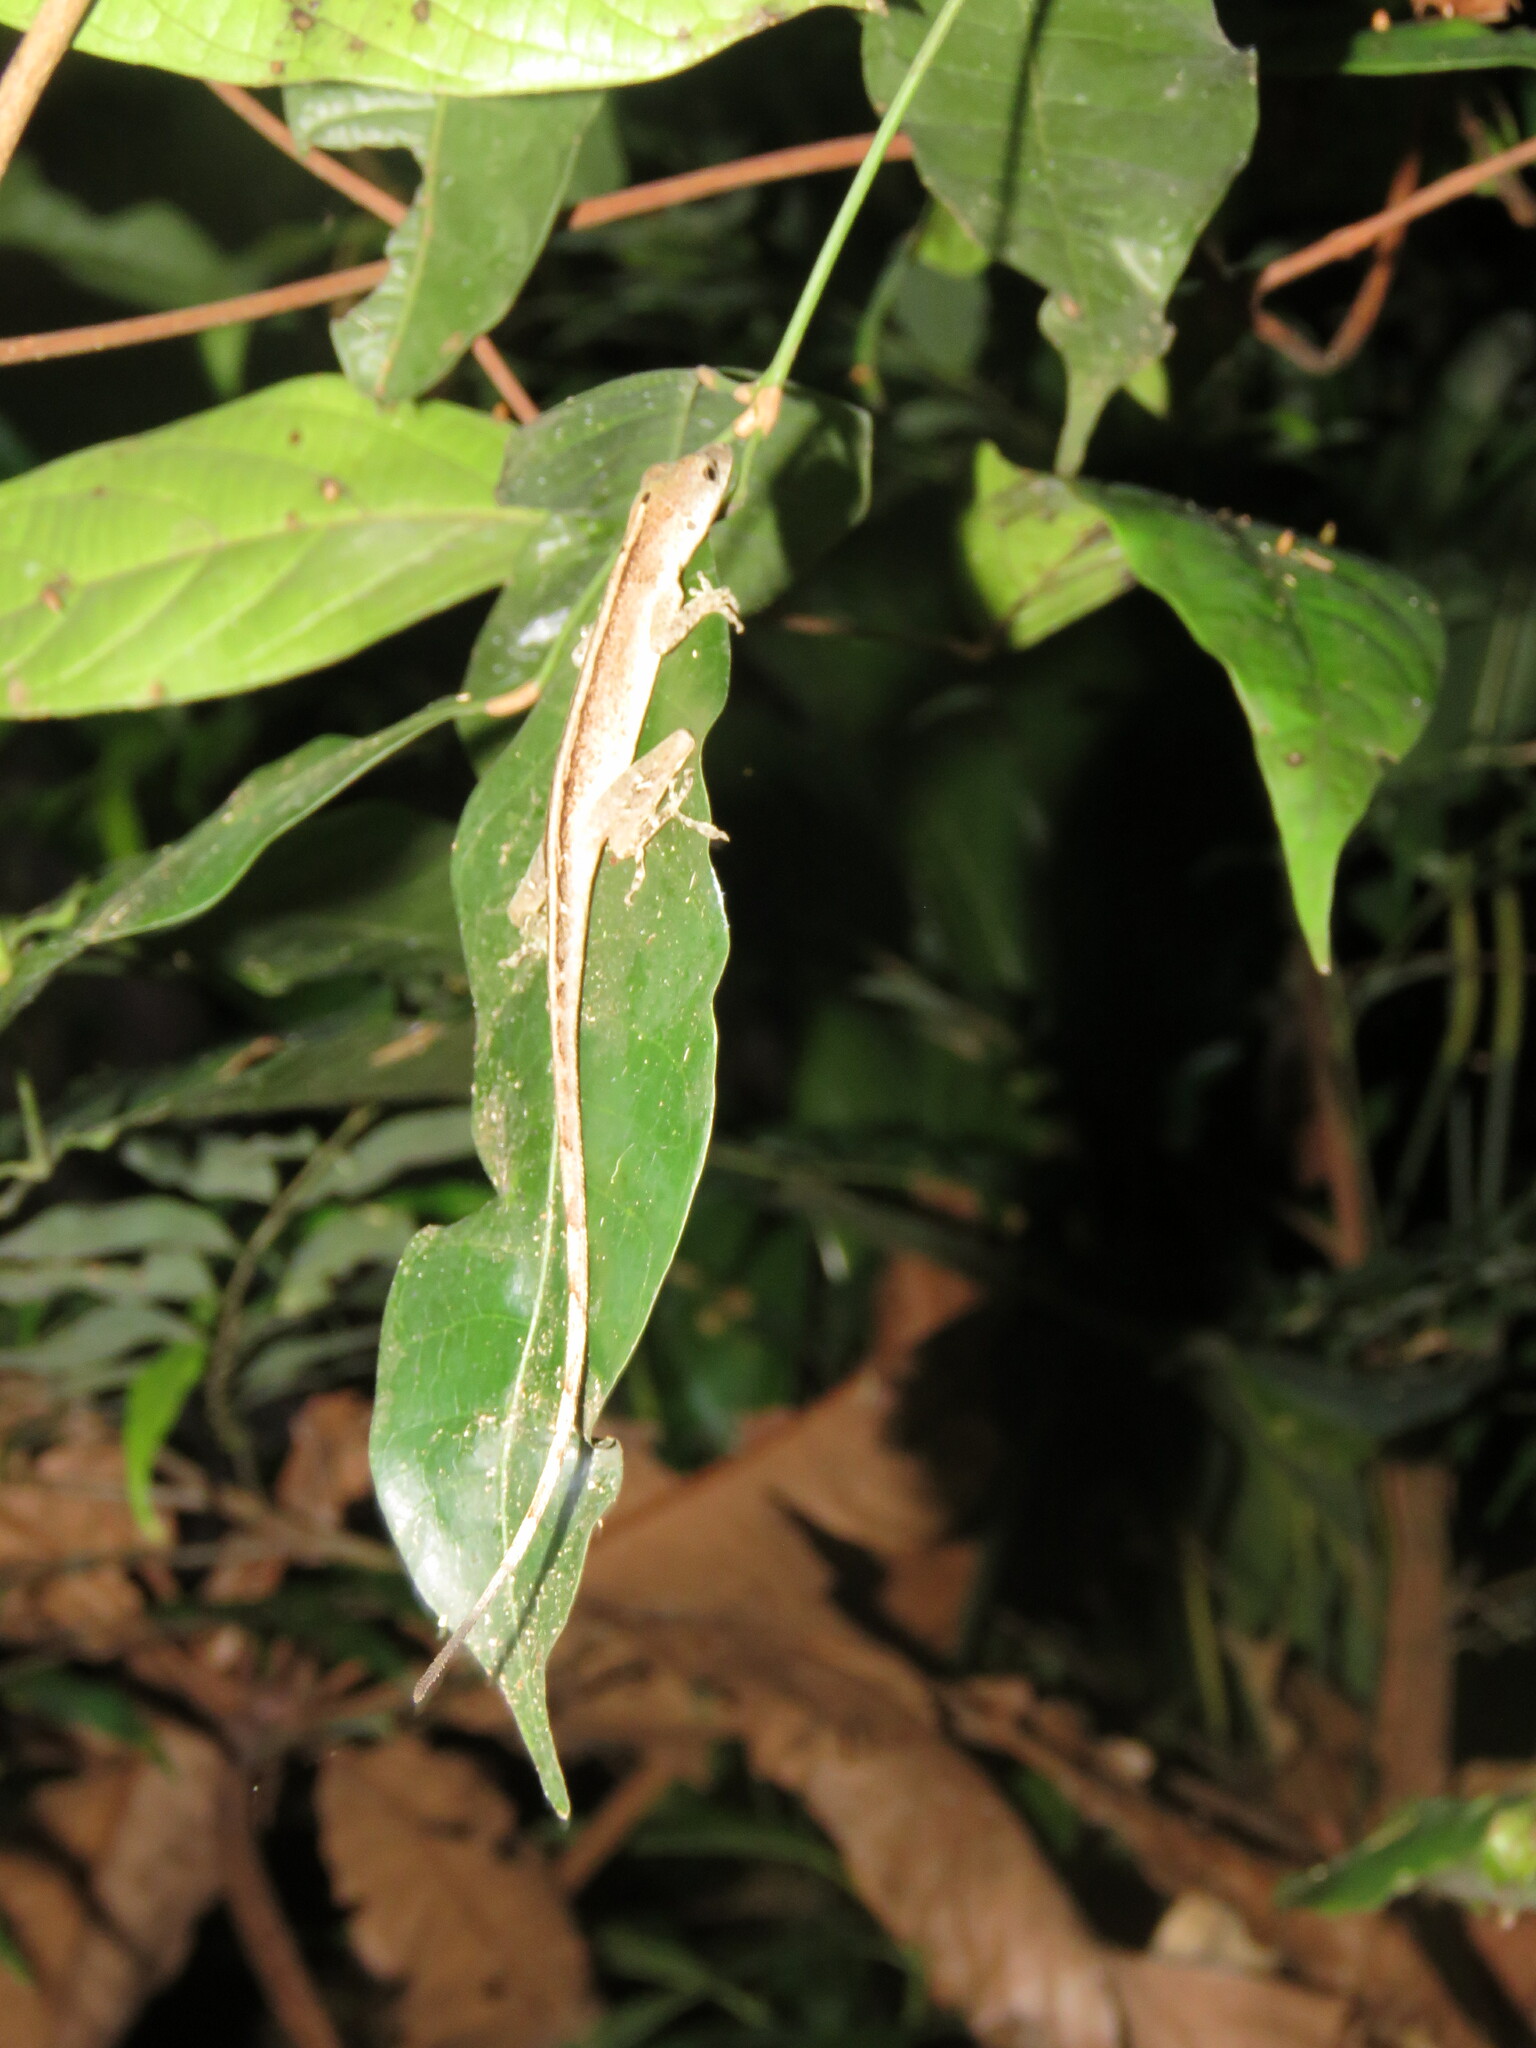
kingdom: Animalia
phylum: Chordata
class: Squamata
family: Dactyloidae
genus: Anolis
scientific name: Anolis fuscoauratus
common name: Brown-eared anole
